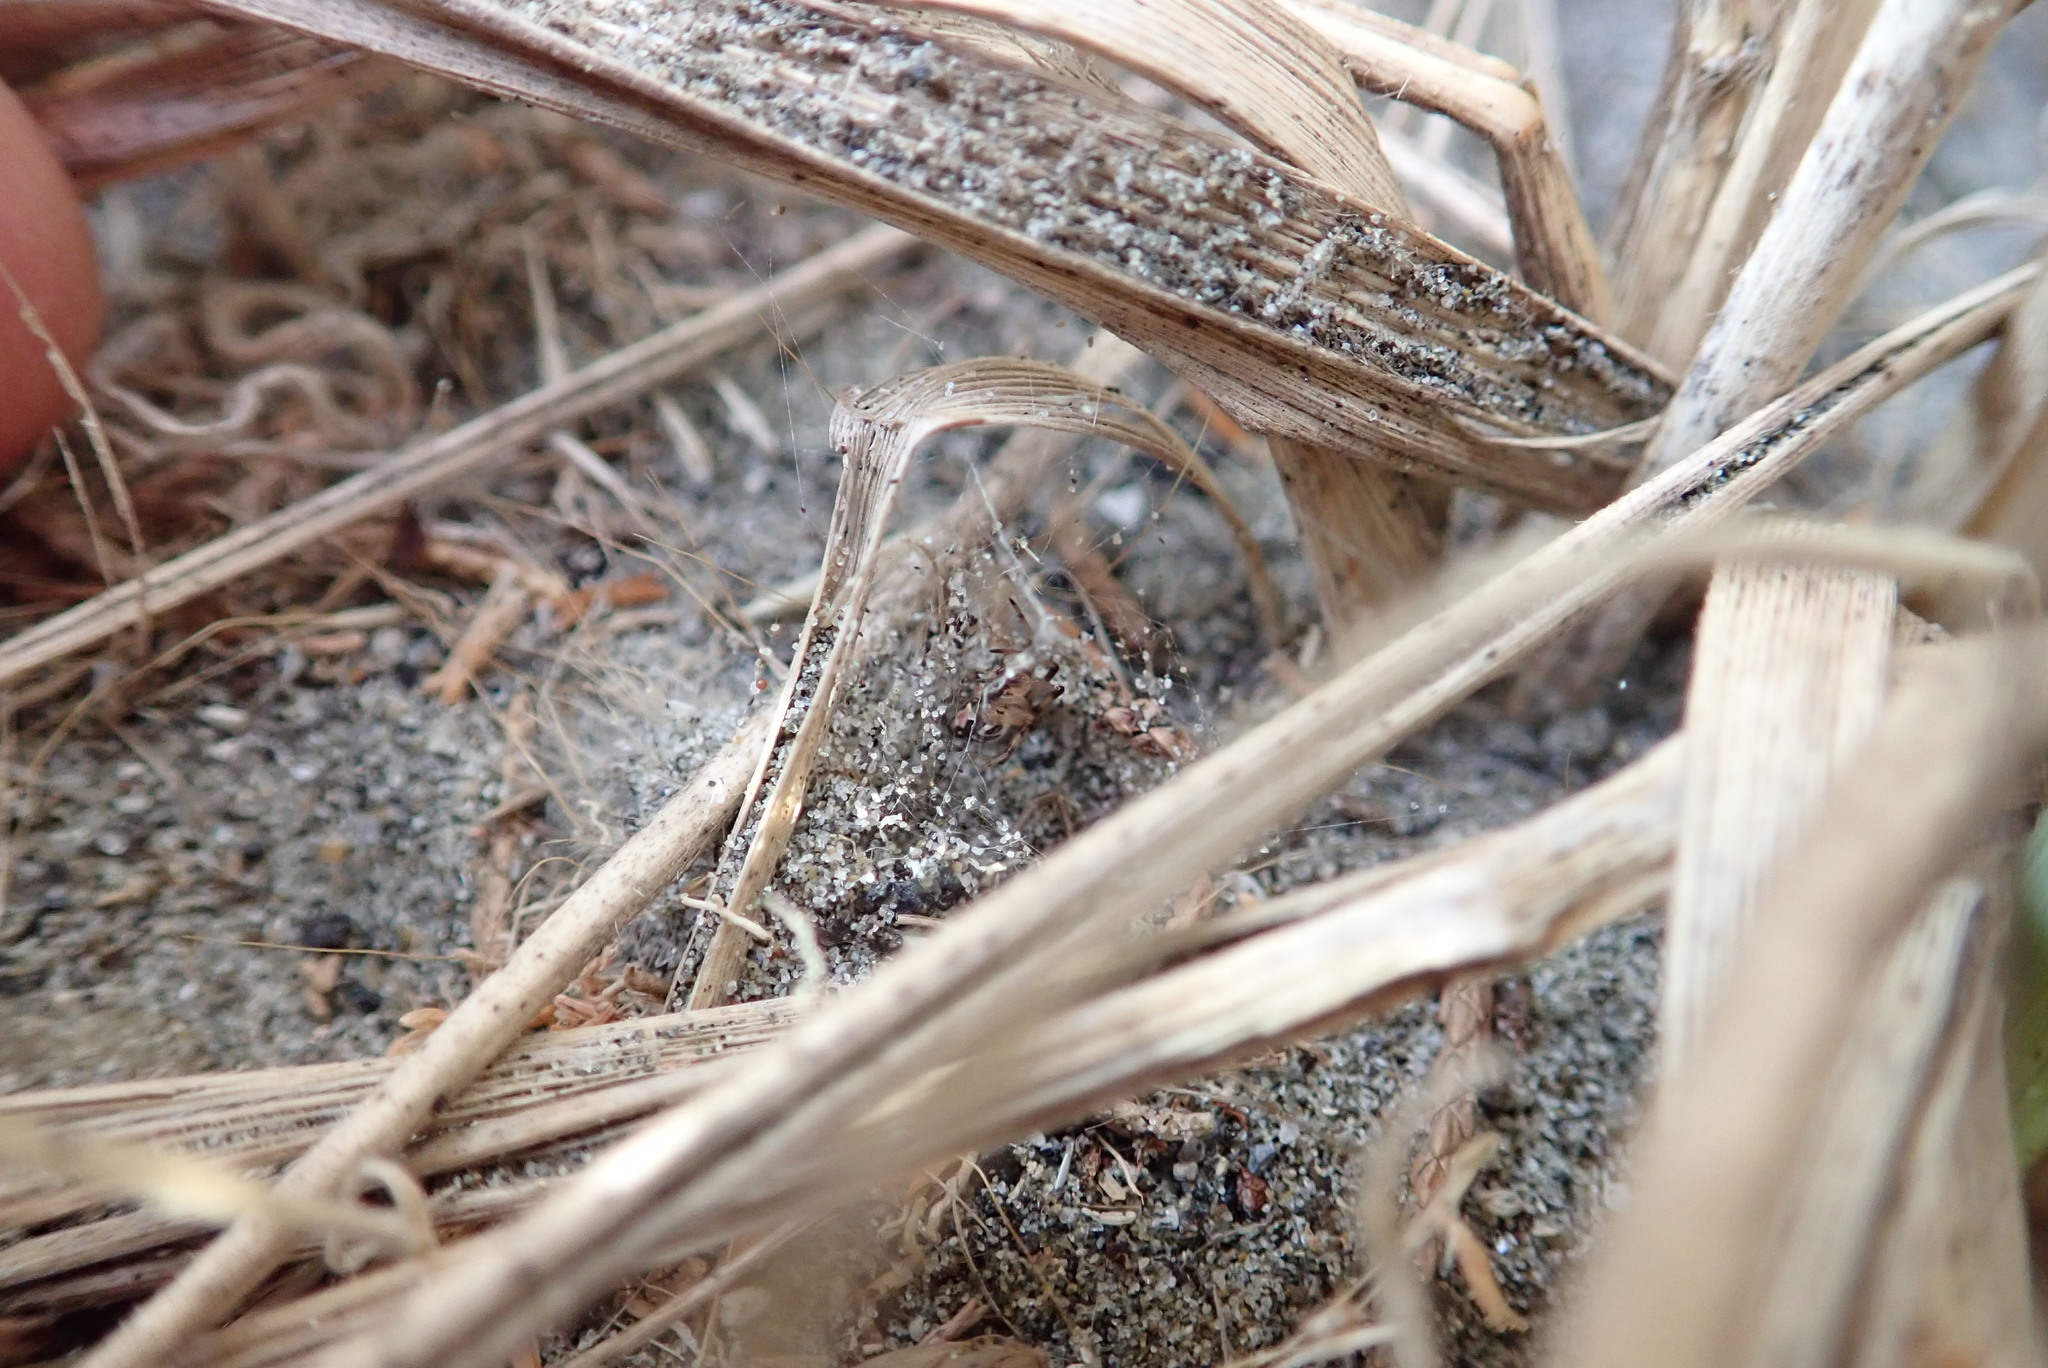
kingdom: Animalia
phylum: Arthropoda
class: Arachnida
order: Araneae
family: Theridiidae
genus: Latrodectus
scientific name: Latrodectus katipo
